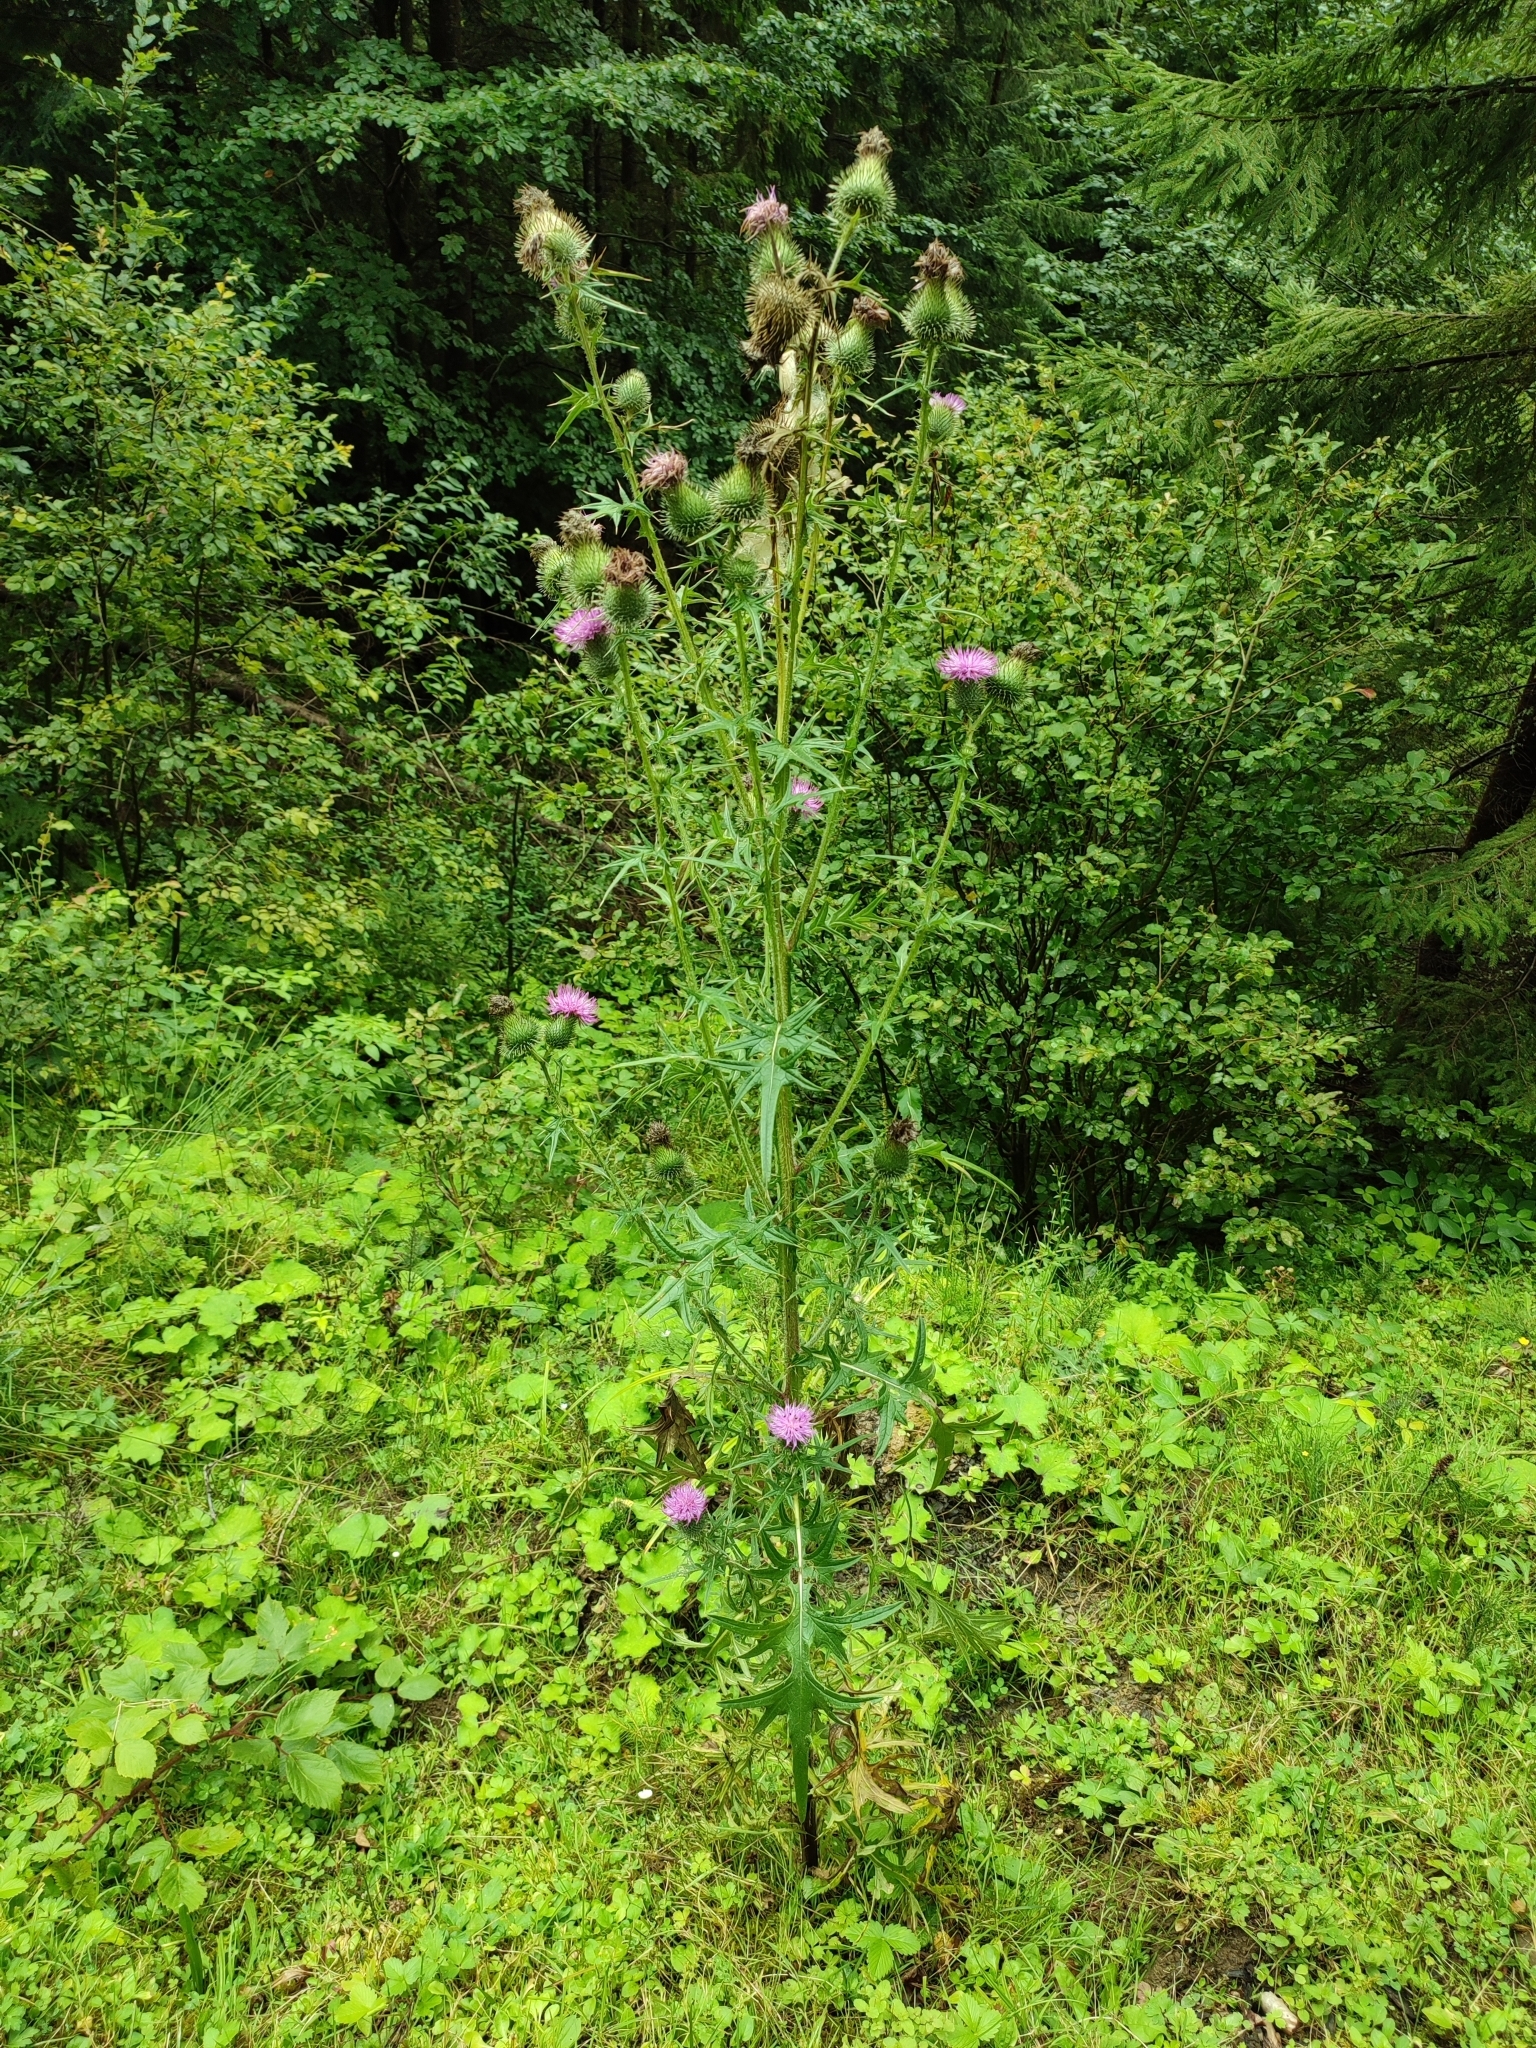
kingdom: Plantae
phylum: Tracheophyta
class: Magnoliopsida
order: Asterales
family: Asteraceae
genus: Cirsium
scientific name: Cirsium vulgare
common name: Bull thistle
